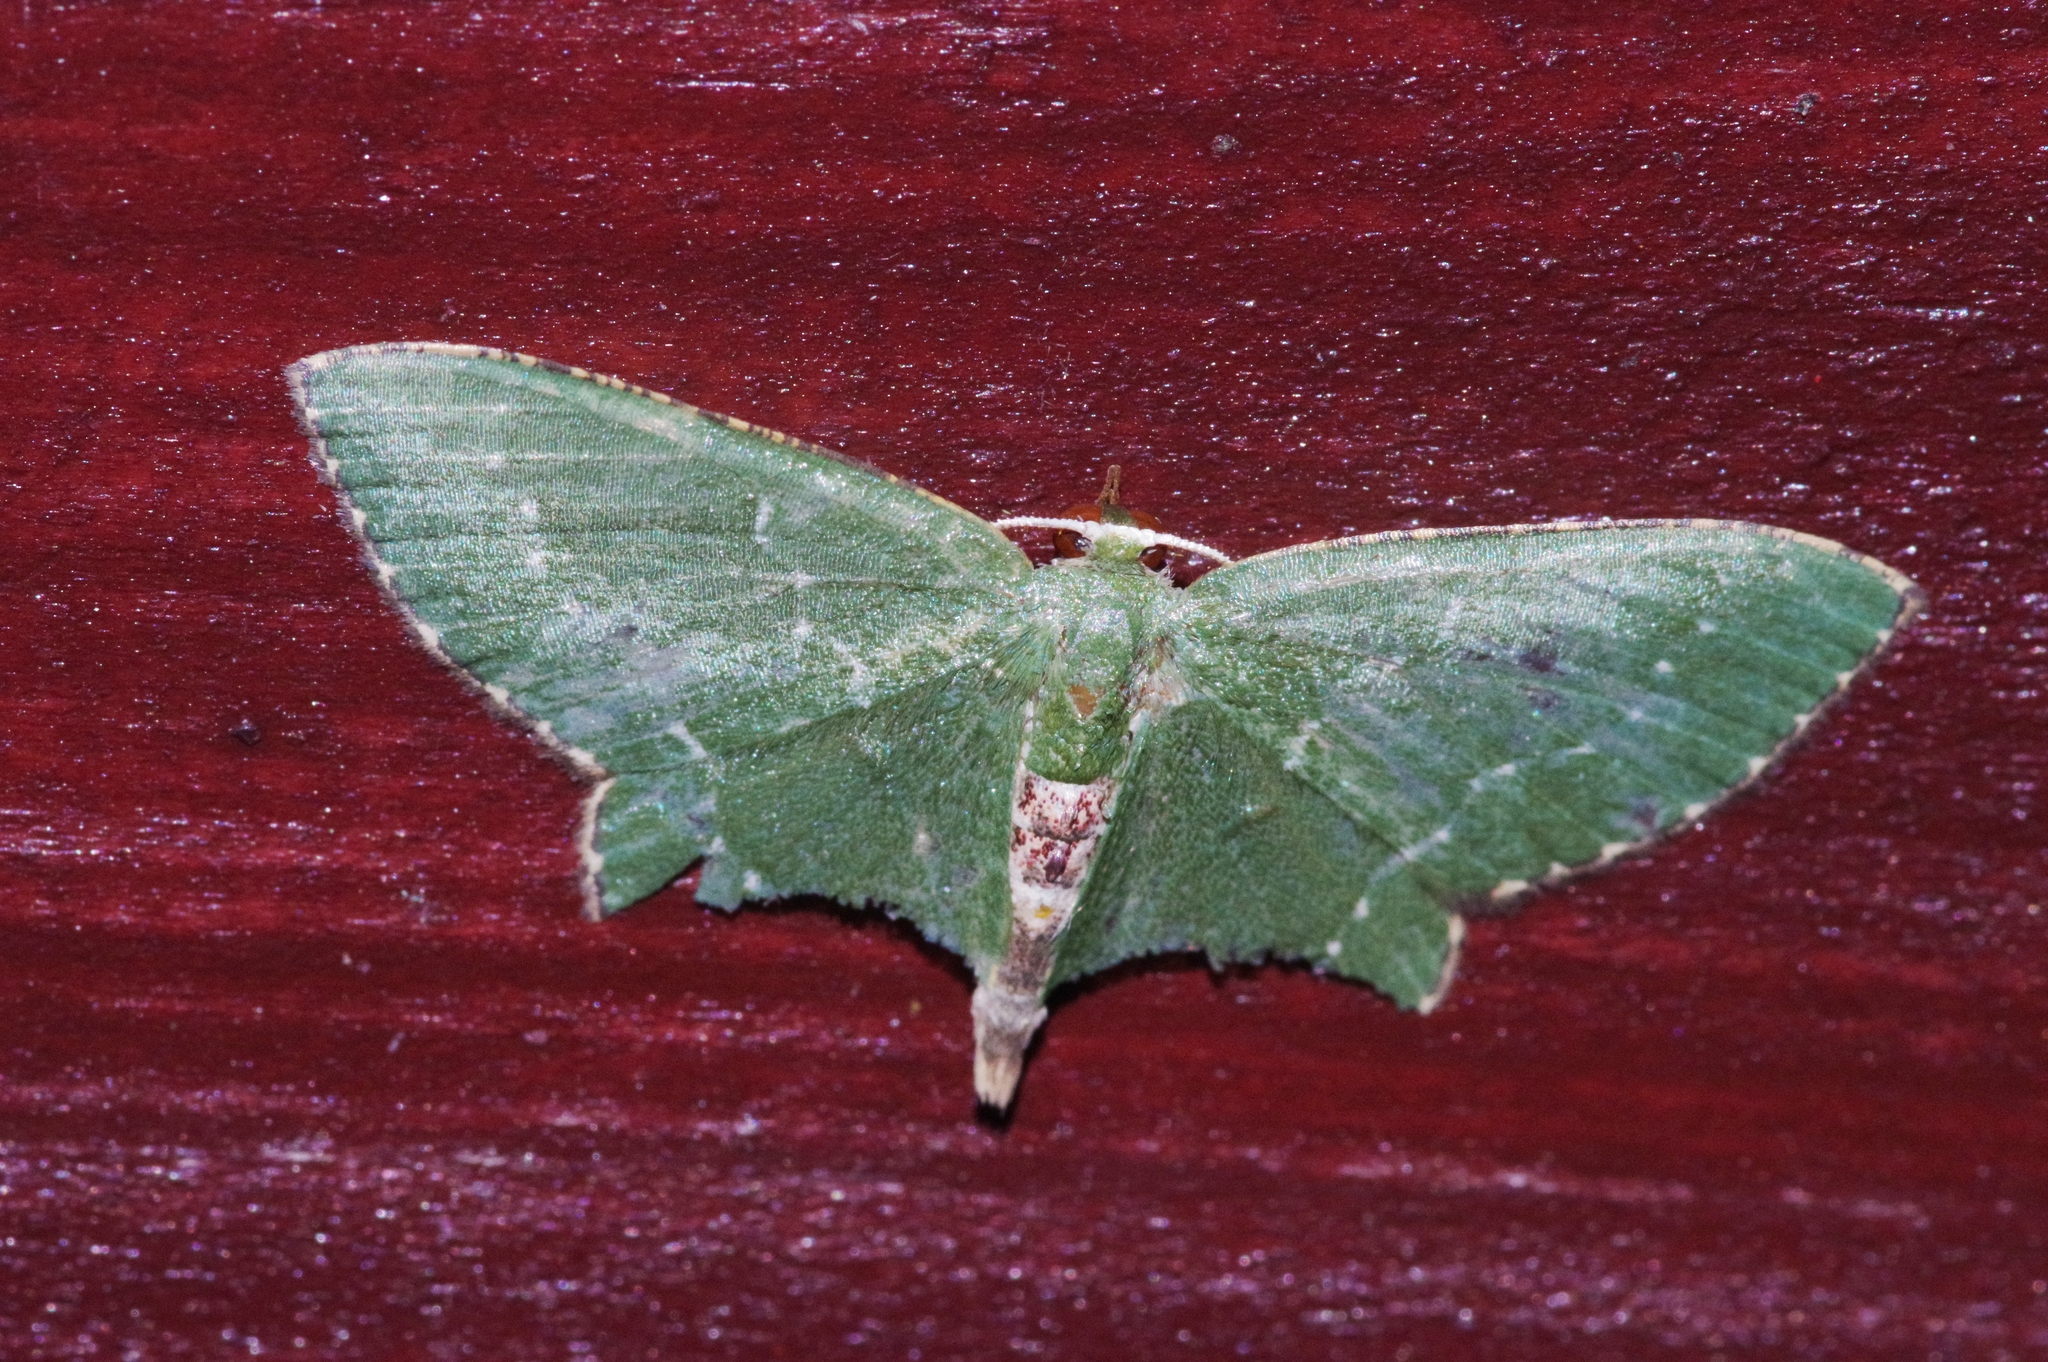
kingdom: Animalia
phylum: Arthropoda
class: Insecta
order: Lepidoptera
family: Geometridae
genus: Hemithea
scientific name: Hemithea tritonaria
